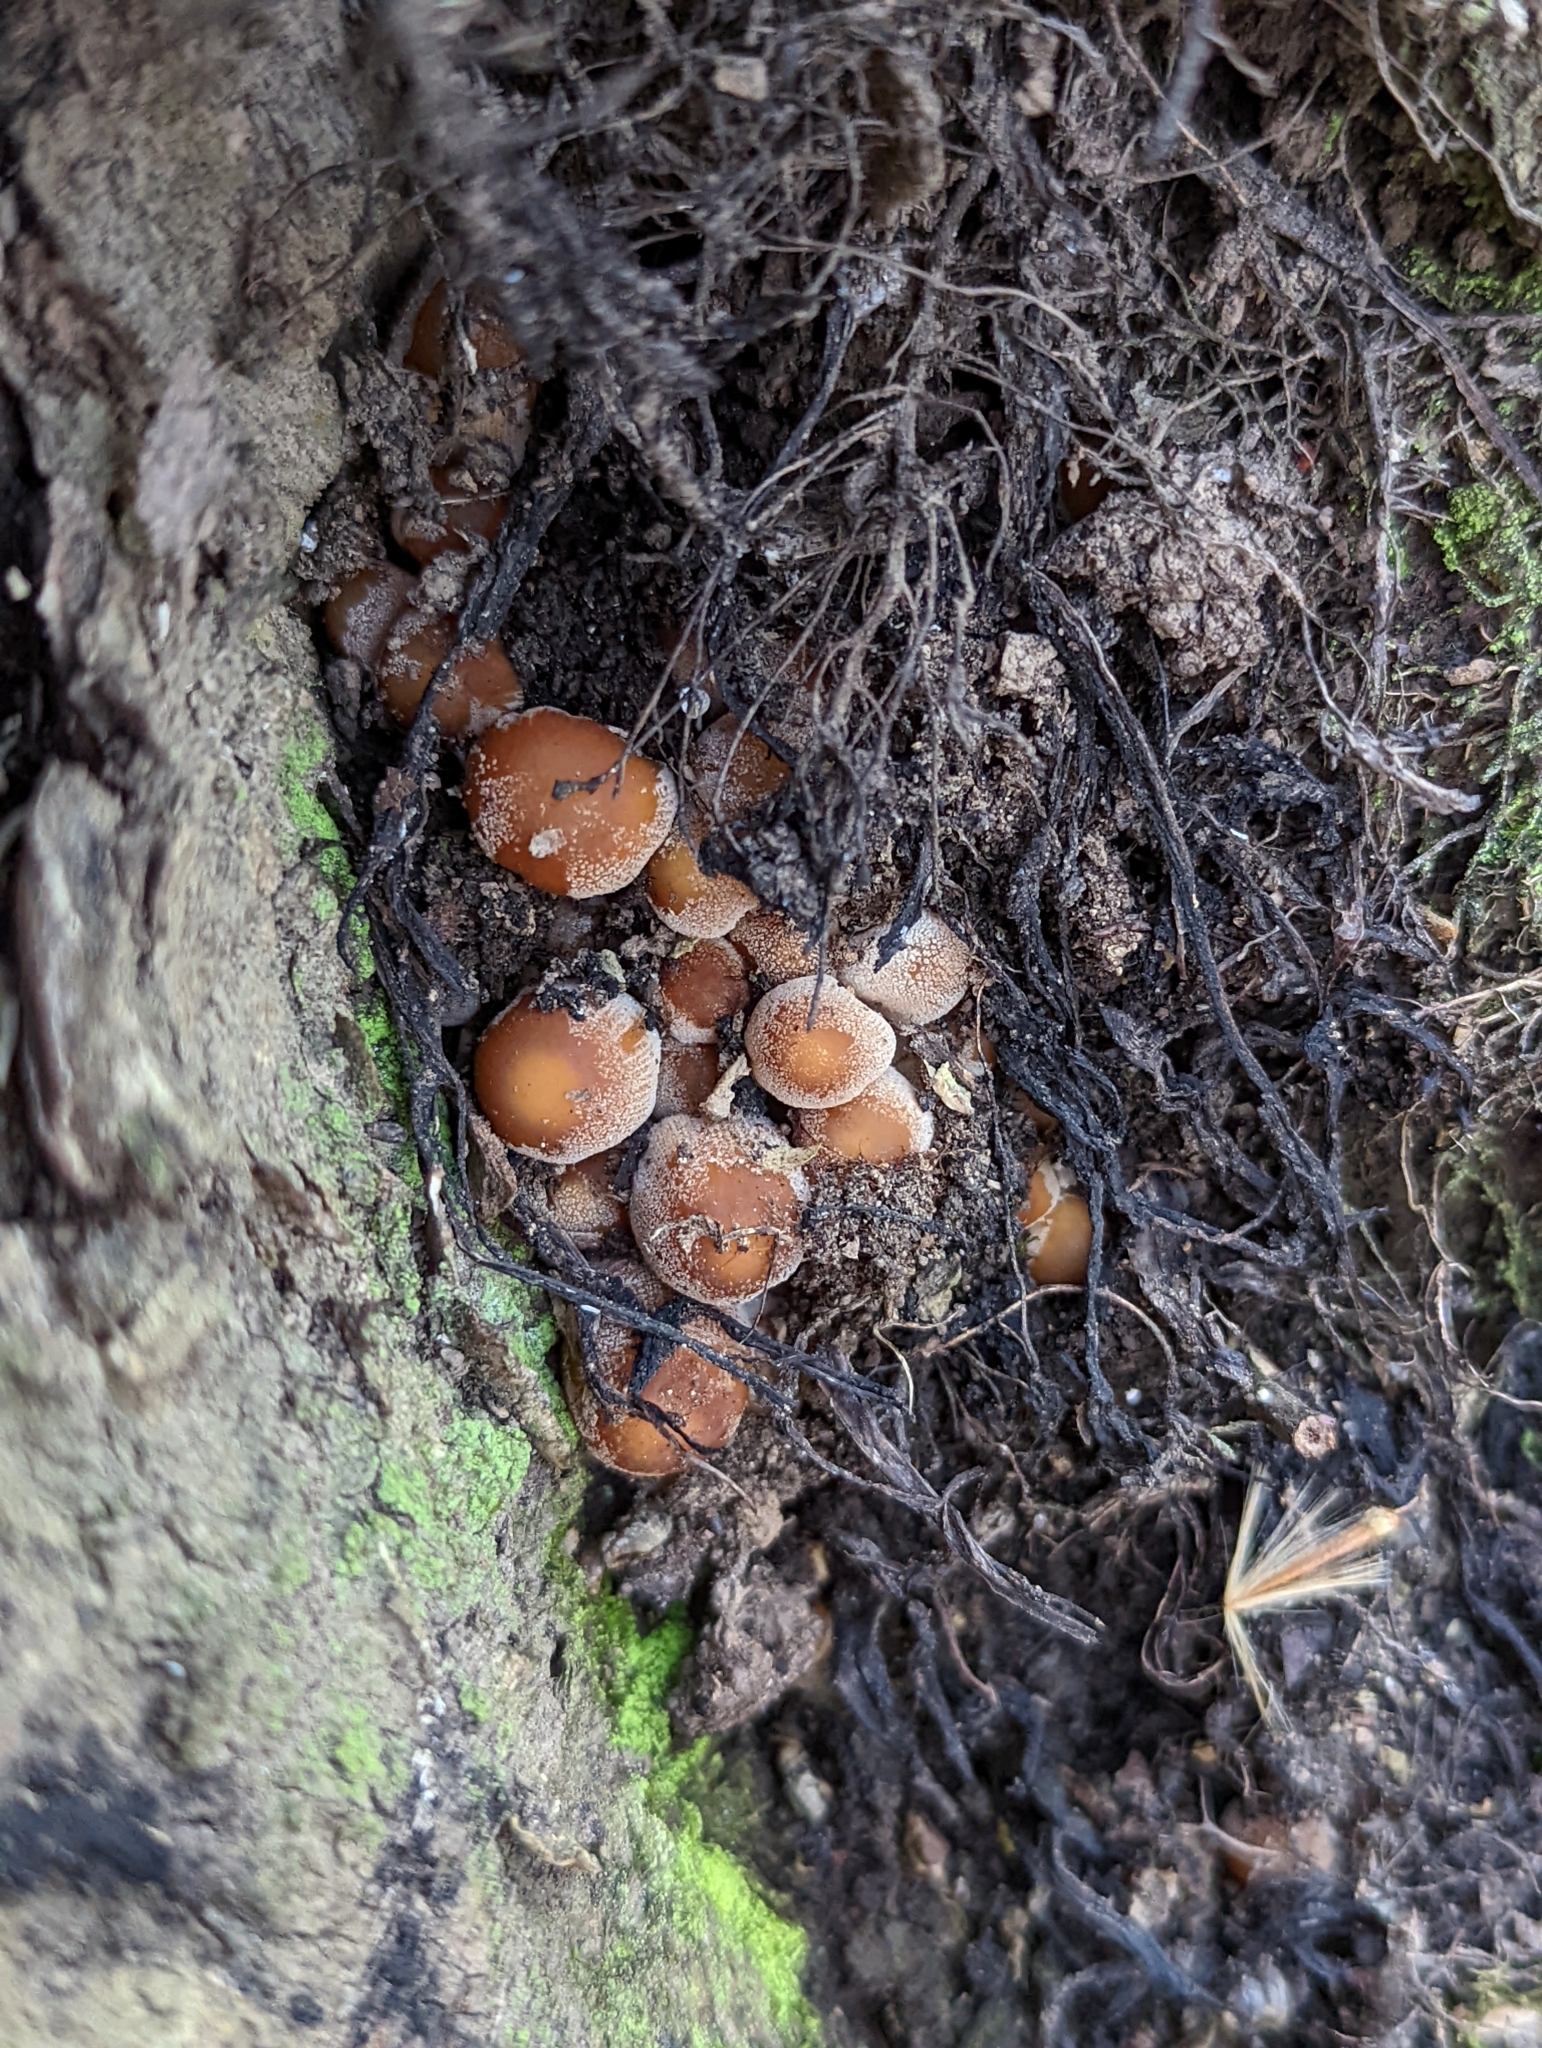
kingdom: Fungi
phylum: Basidiomycota
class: Agaricomycetes
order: Agaricales
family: Psathyrellaceae
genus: Coprinellus
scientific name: Coprinellus micaceus
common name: Glistening ink-cap
